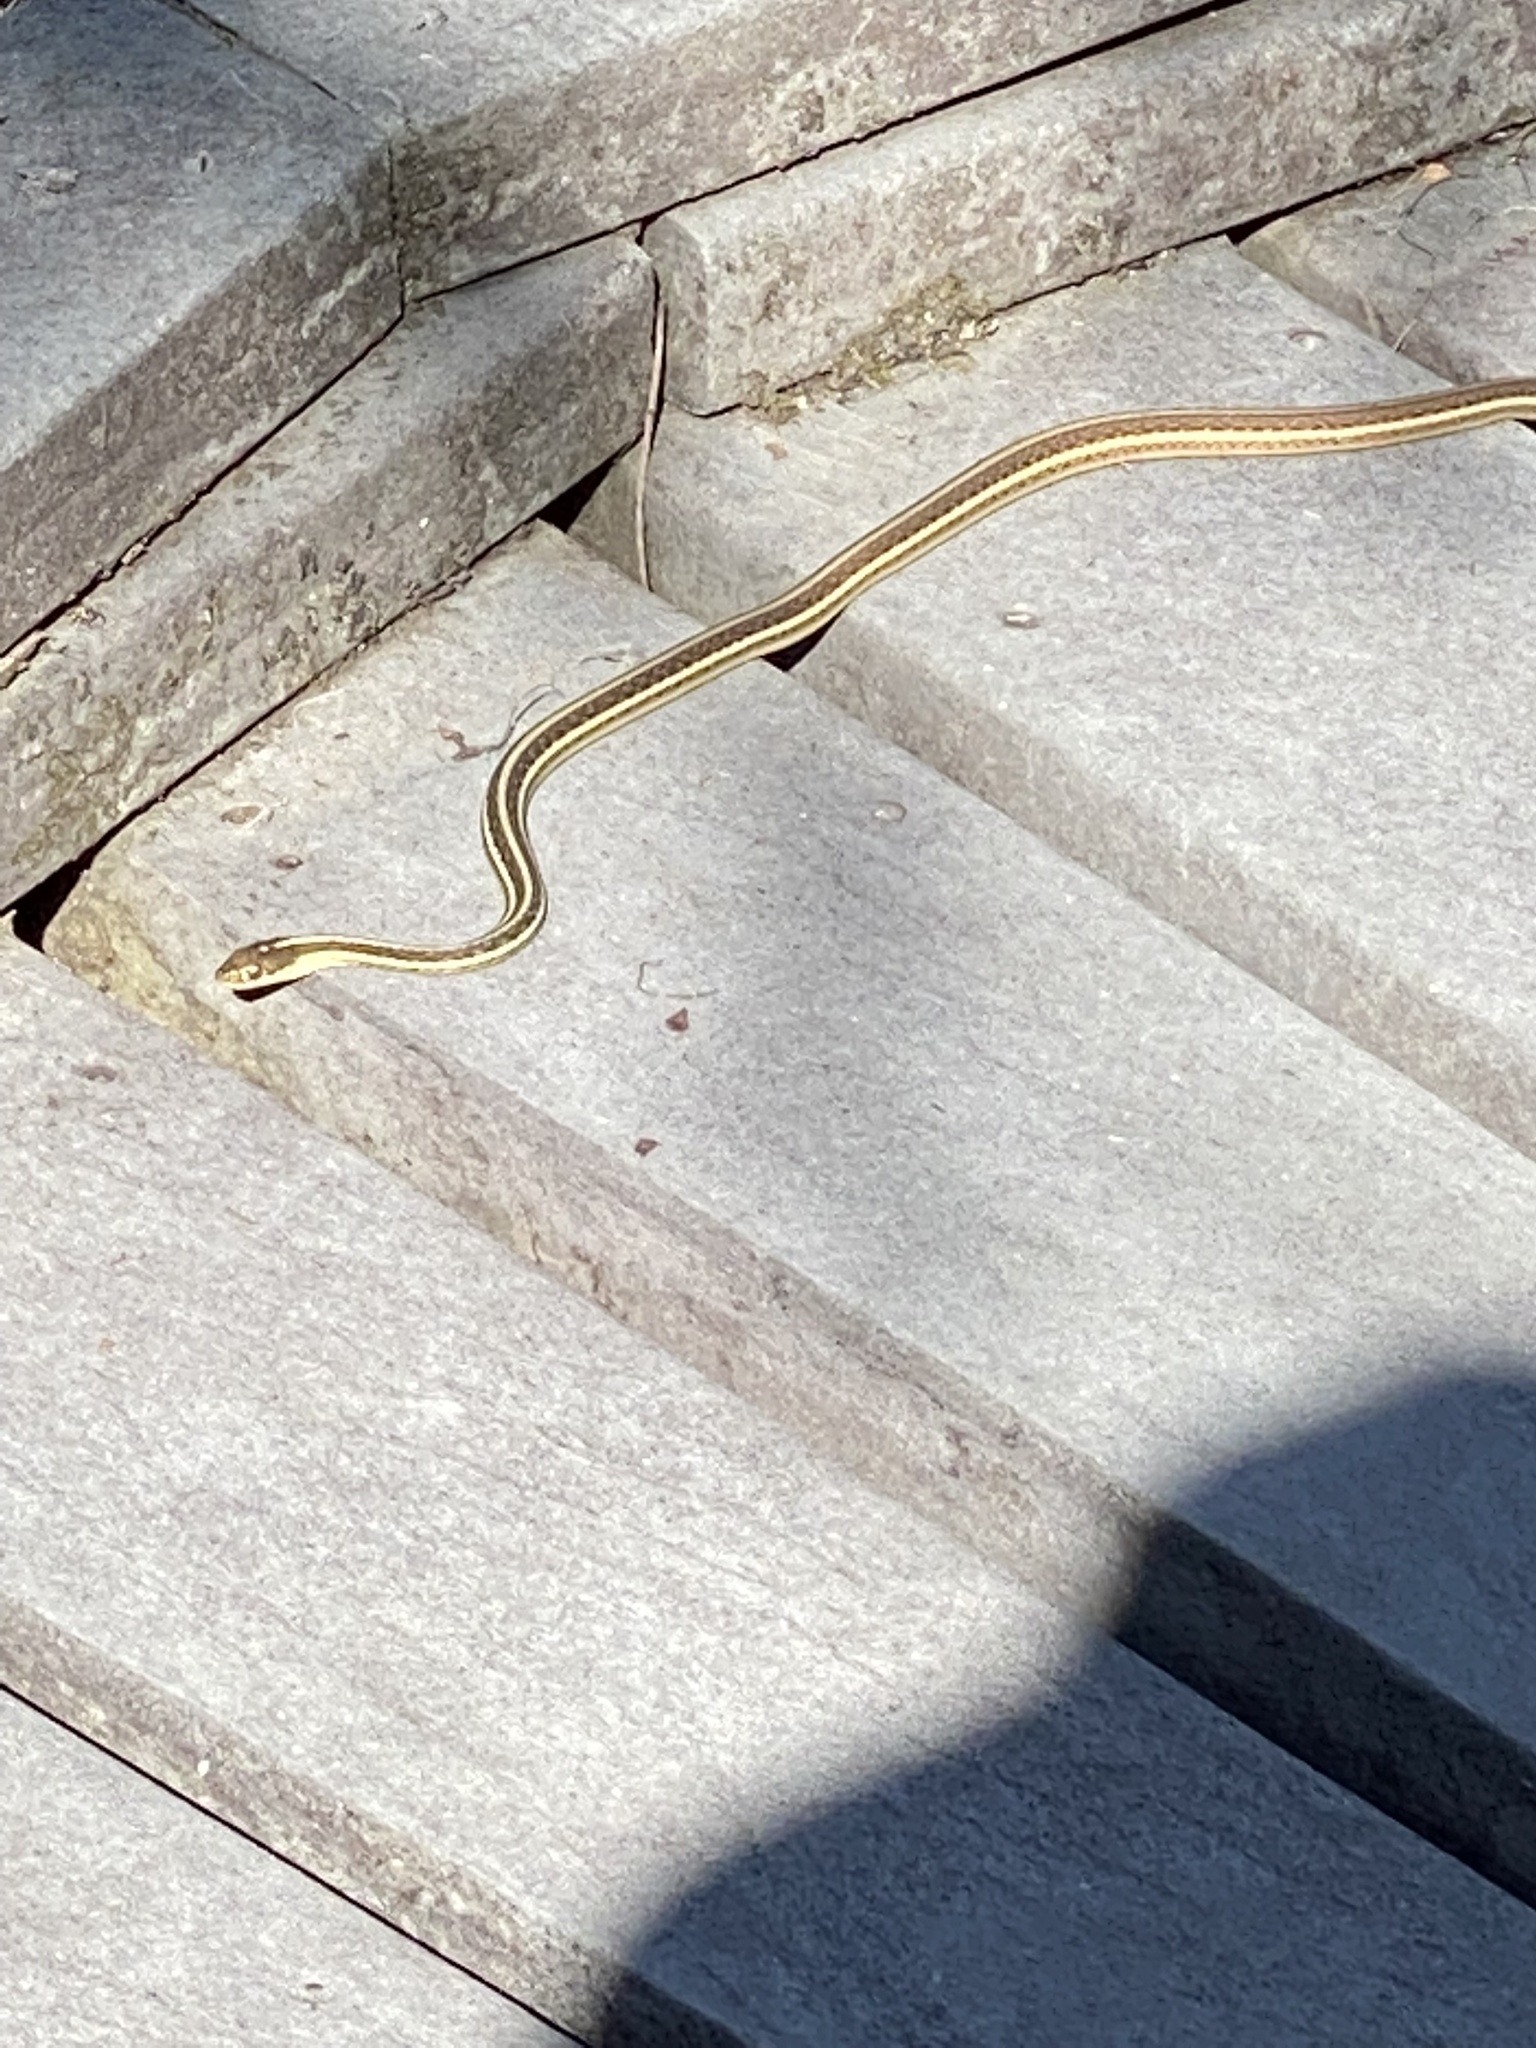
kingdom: Animalia
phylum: Chordata
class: Squamata
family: Colubridae
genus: Thamnophis
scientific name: Thamnophis proximus
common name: Western ribbon snake
